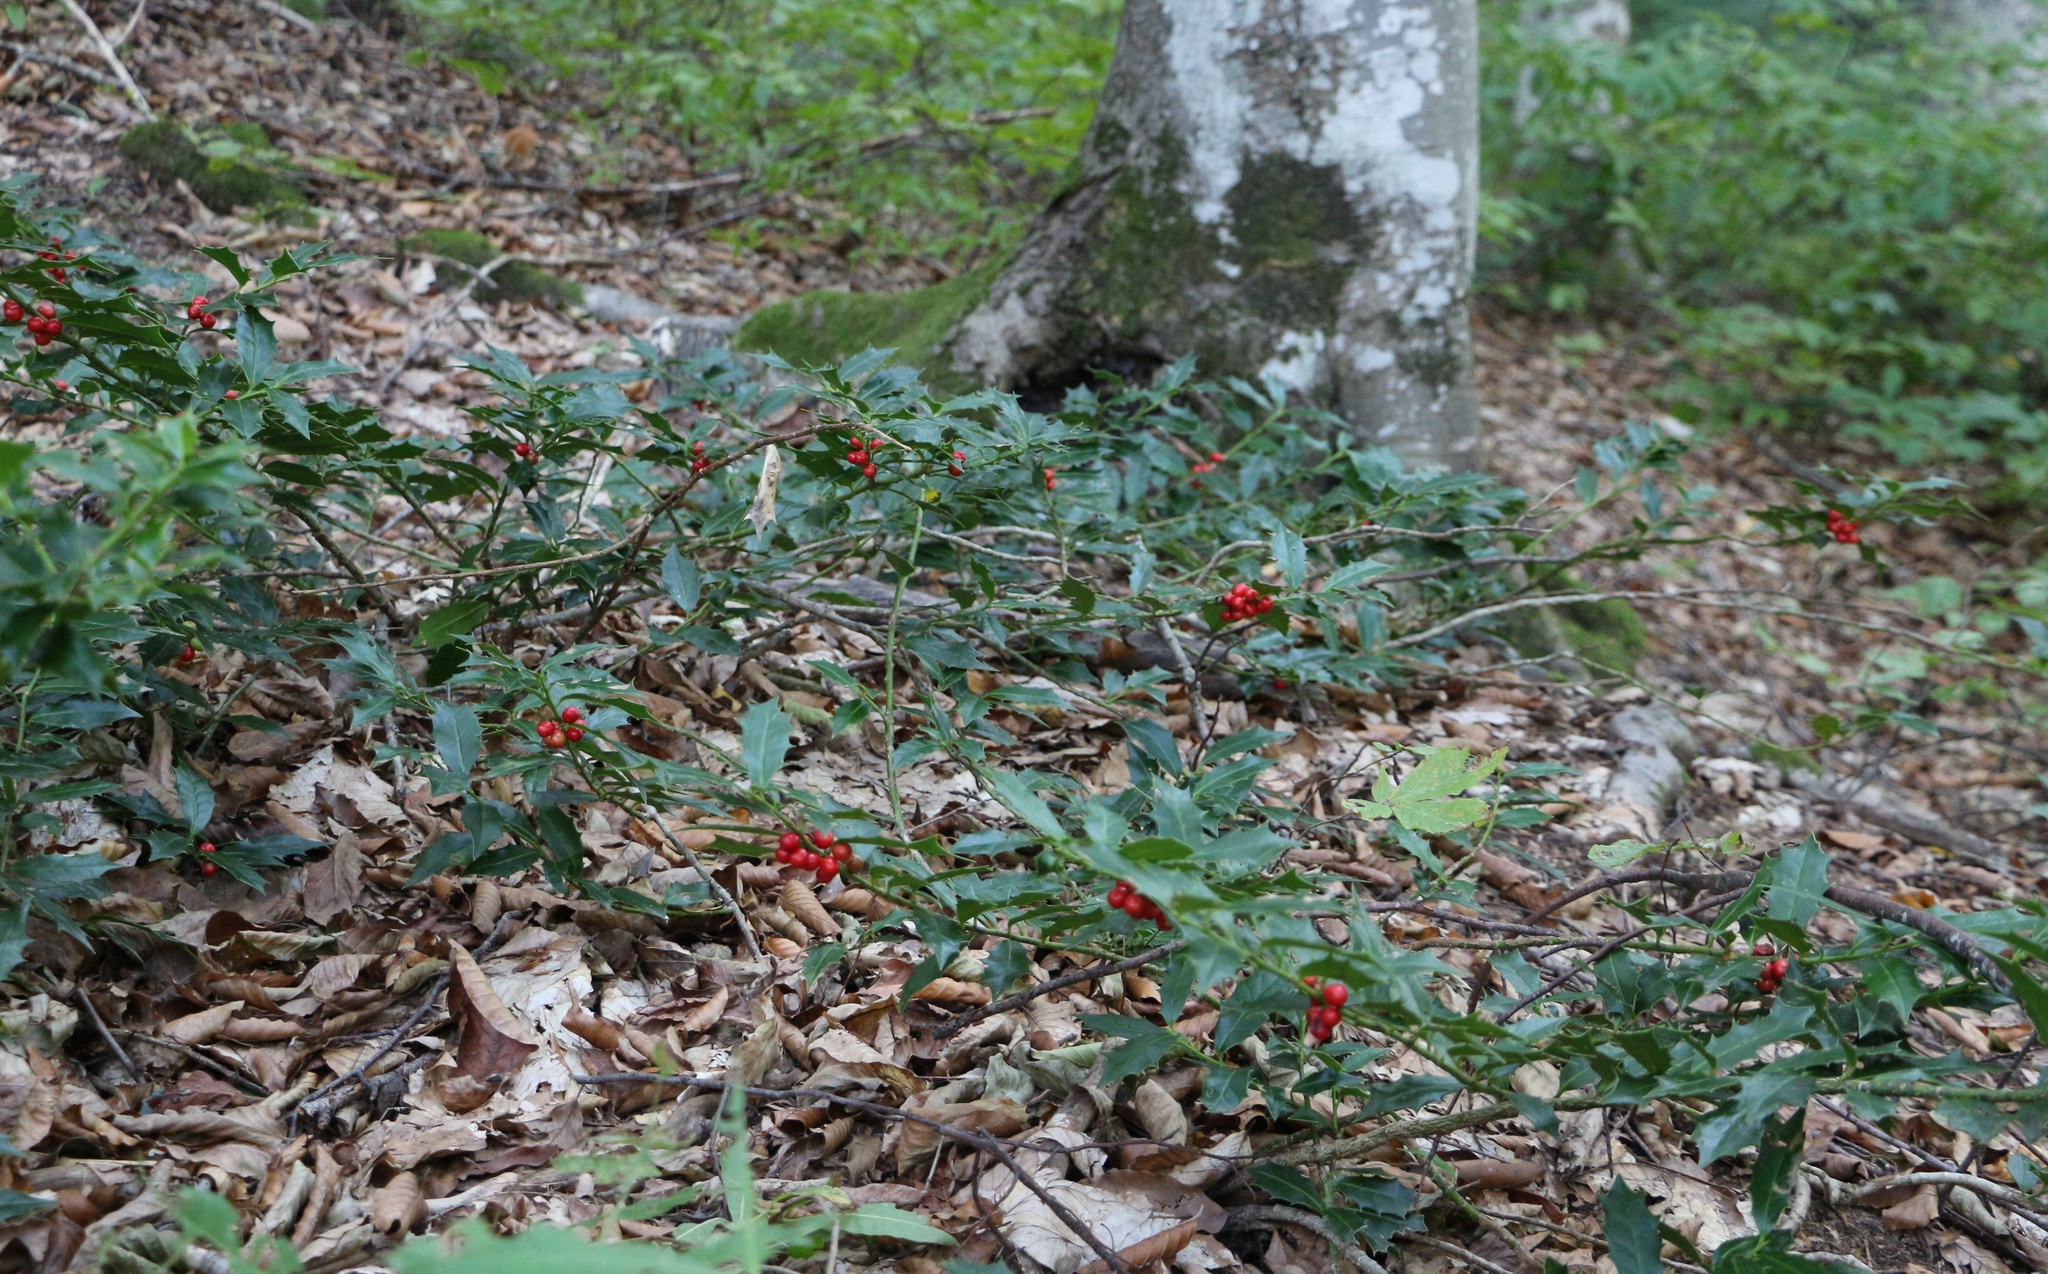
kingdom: Plantae
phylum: Tracheophyta
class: Magnoliopsida
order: Aquifoliales
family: Aquifoliaceae
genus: Ilex
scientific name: Ilex colchica
